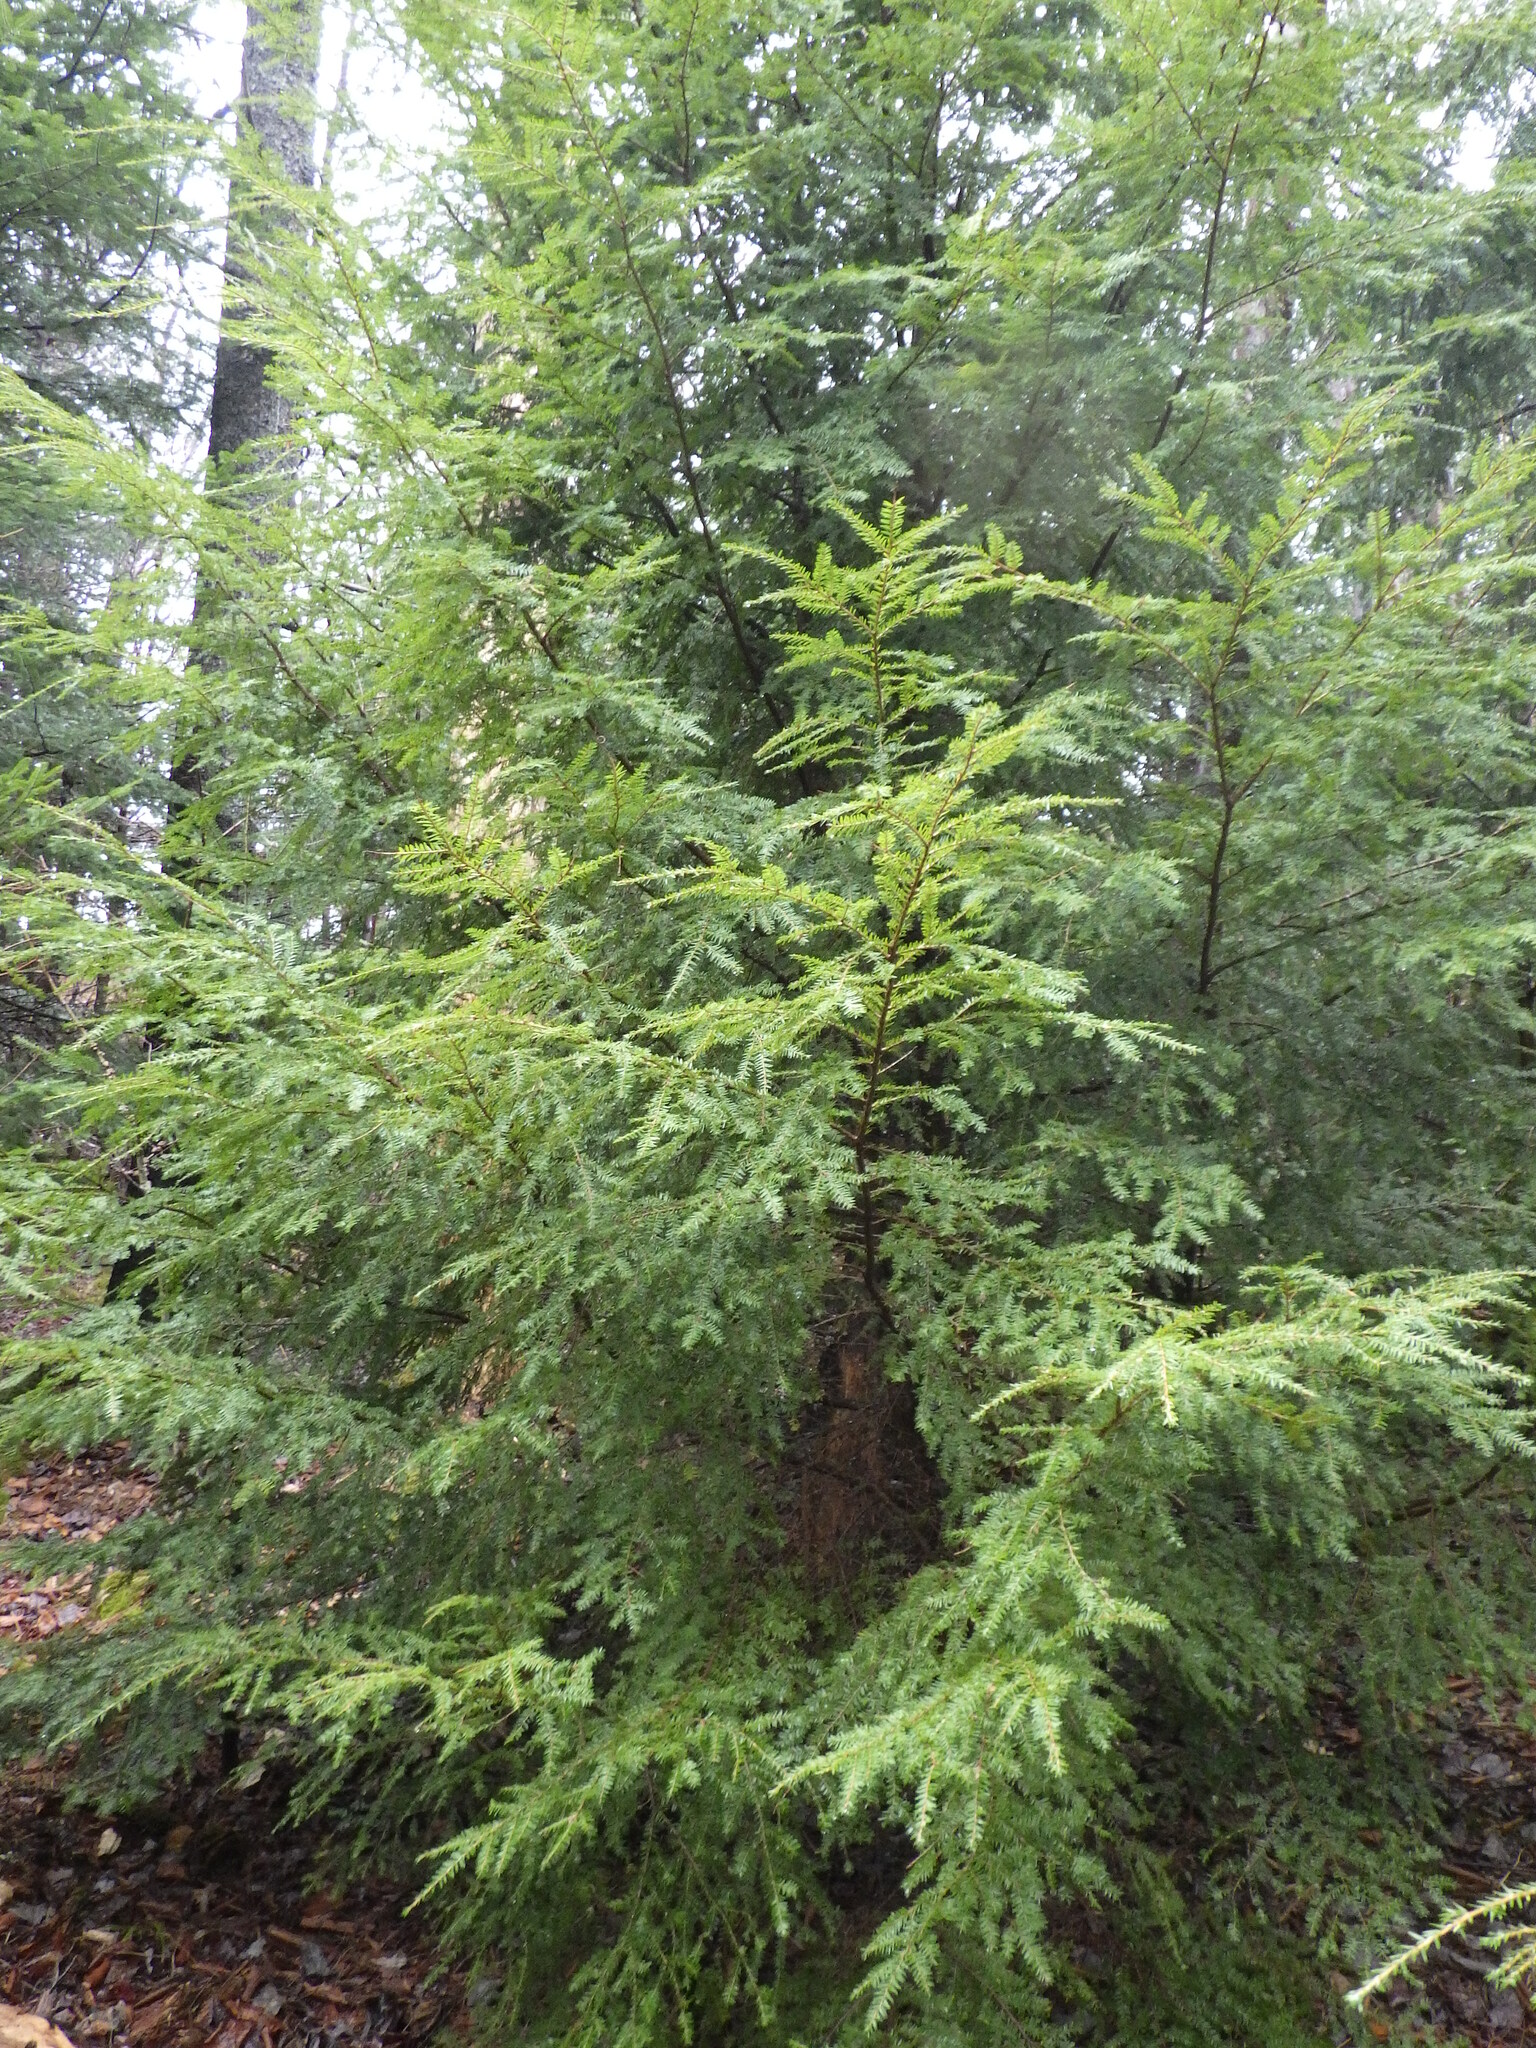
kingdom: Plantae
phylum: Tracheophyta
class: Pinopsida
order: Pinales
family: Pinaceae
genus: Tsuga
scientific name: Tsuga canadensis
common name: Eastern hemlock
